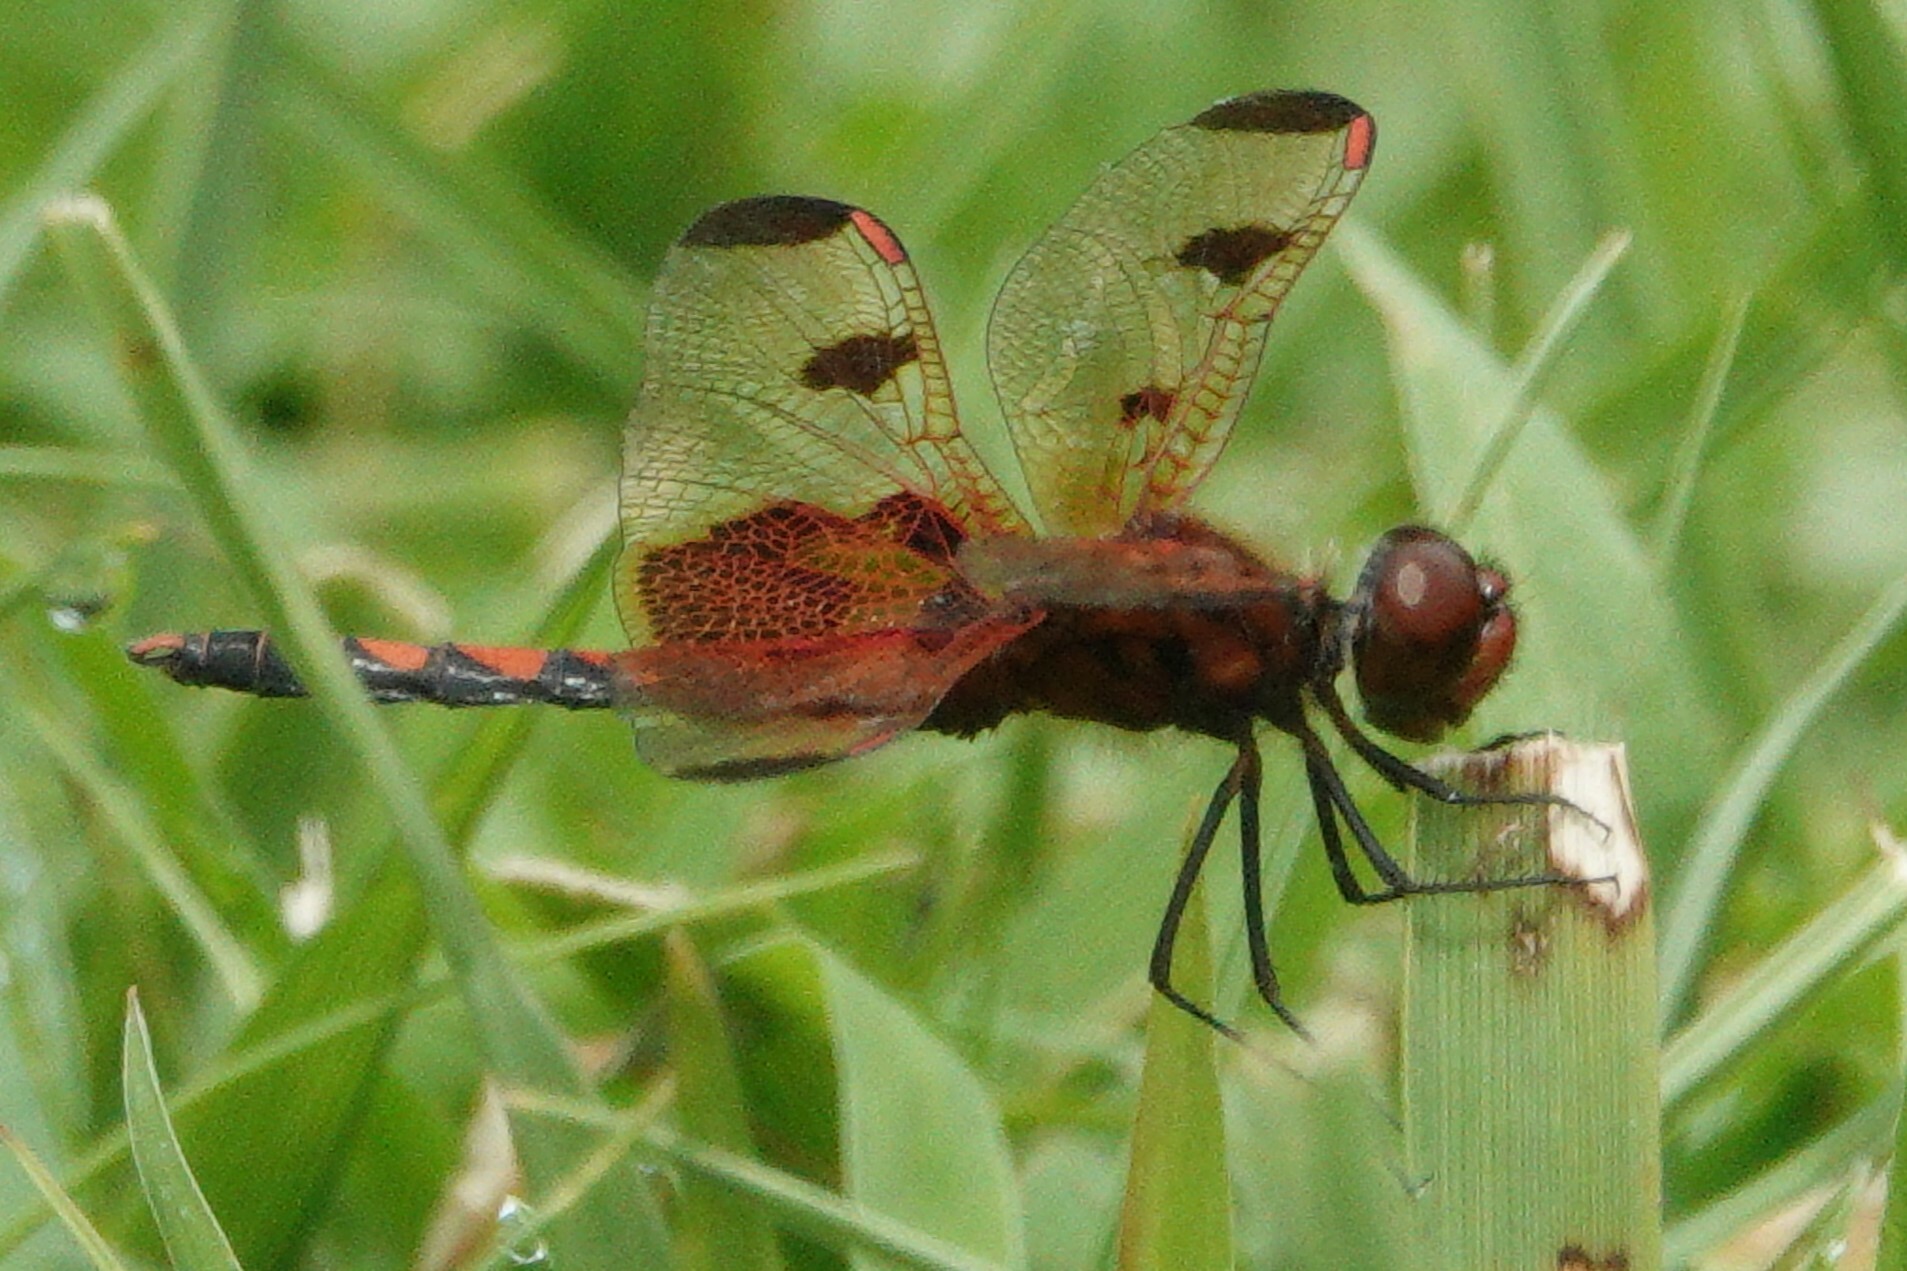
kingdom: Animalia
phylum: Arthropoda
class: Insecta
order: Odonata
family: Libellulidae
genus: Celithemis
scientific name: Celithemis elisa
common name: Calico pennant
